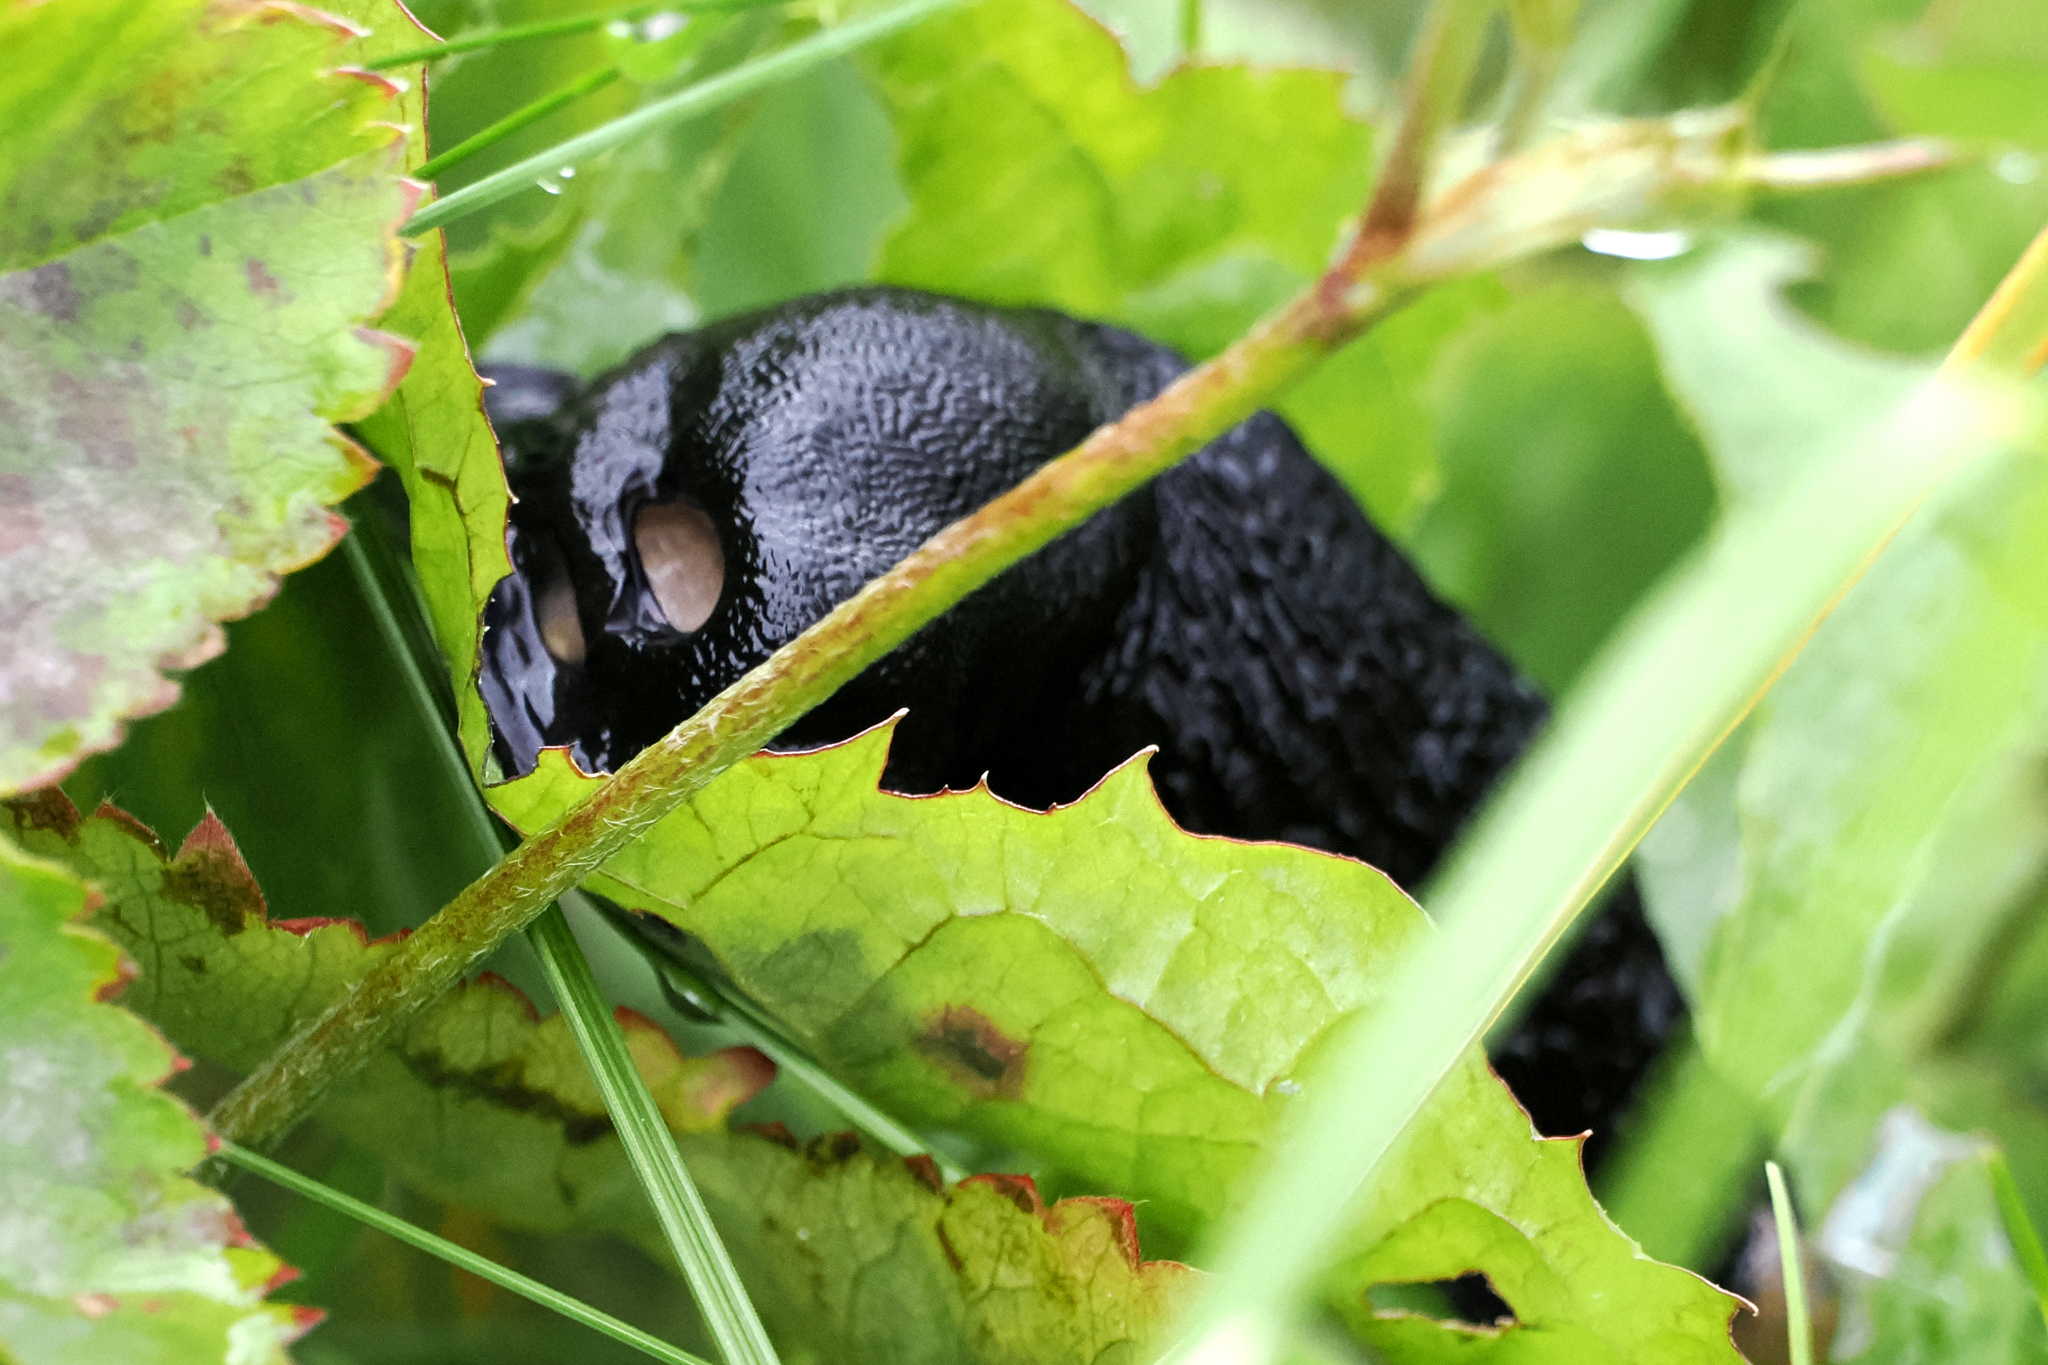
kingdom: Animalia
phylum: Mollusca
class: Gastropoda
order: Stylommatophora
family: Arionidae
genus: Arion
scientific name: Arion ater
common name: Black arion
